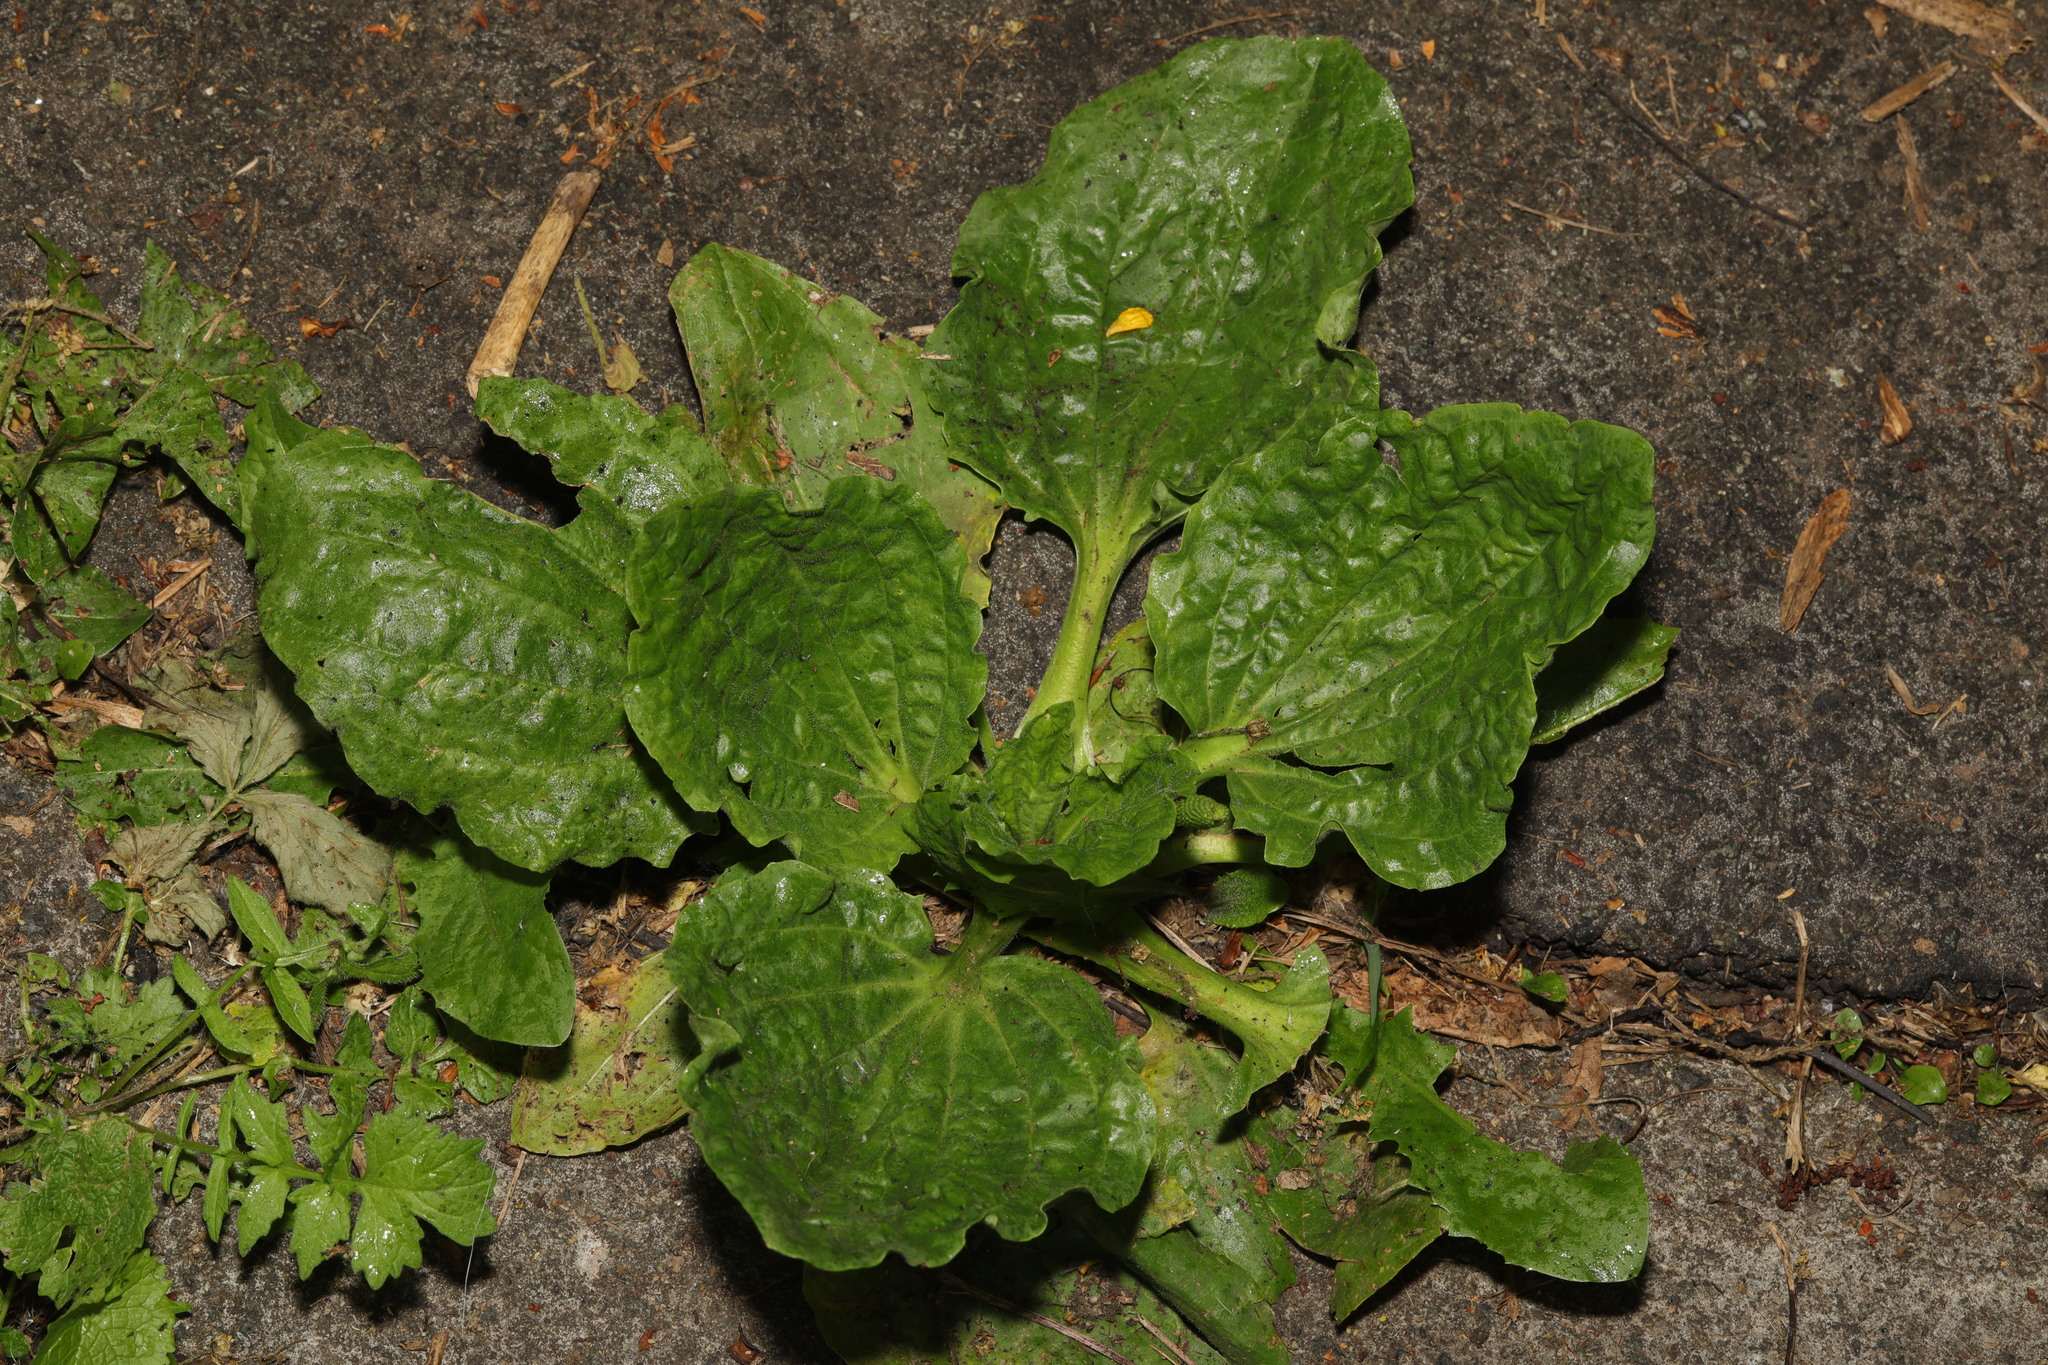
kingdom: Plantae
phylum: Tracheophyta
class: Magnoliopsida
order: Lamiales
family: Plantaginaceae
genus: Plantago
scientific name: Plantago major
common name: Common plantain
